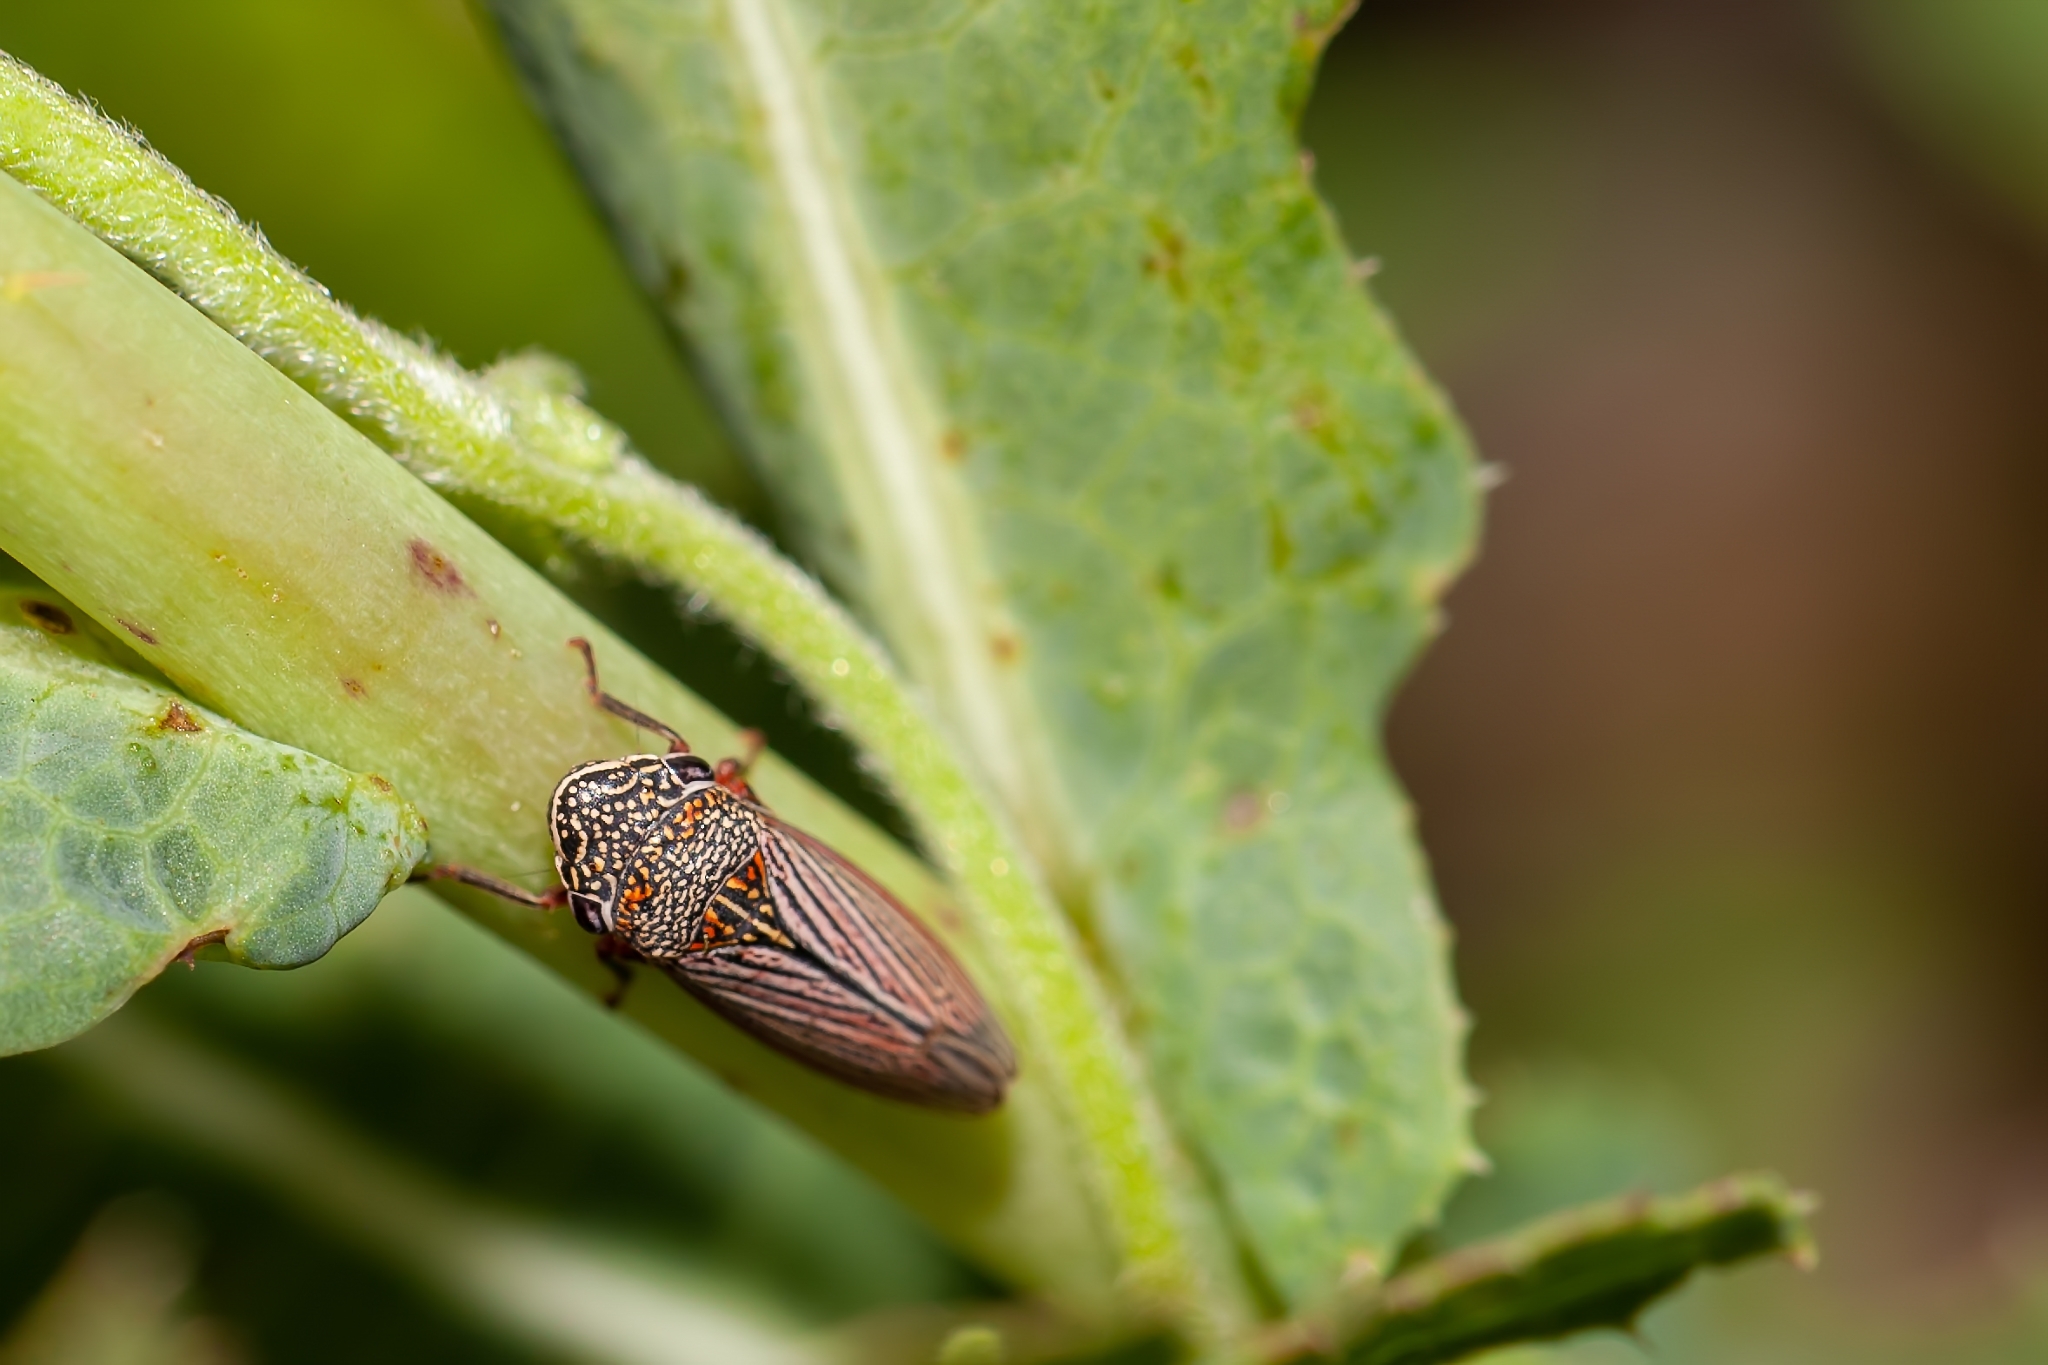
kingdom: Animalia
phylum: Arthropoda
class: Insecta
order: Hemiptera
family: Cicadellidae
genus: Cuerna
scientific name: Cuerna costalis
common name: Lateral-lined sharpshooter
